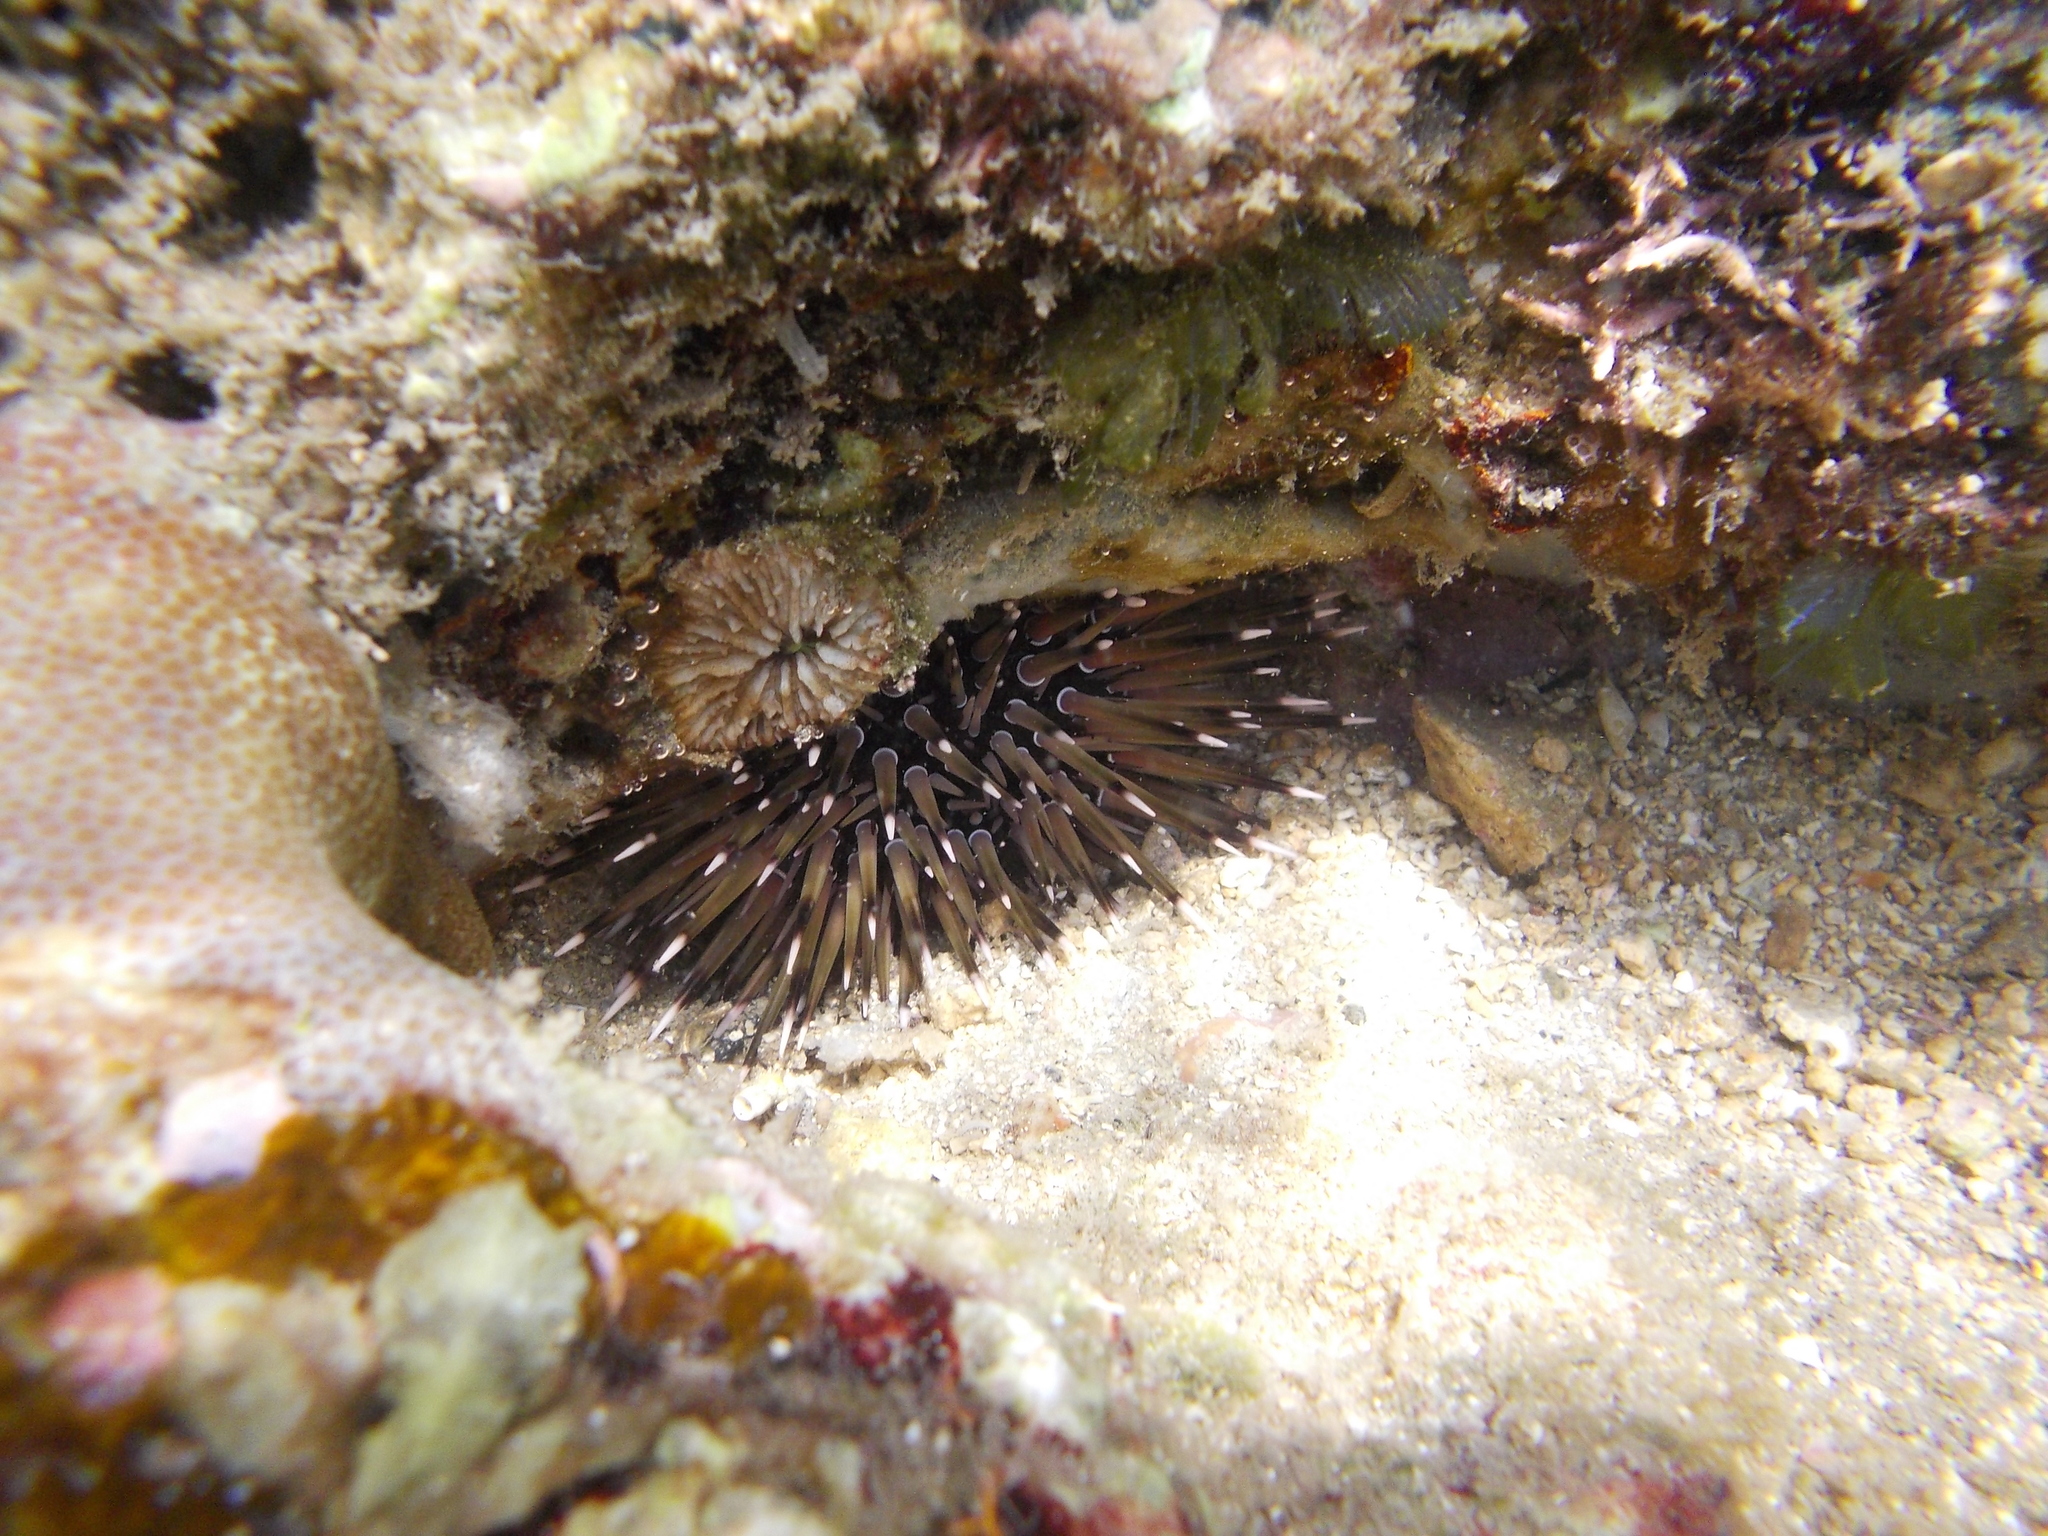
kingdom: Animalia
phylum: Echinodermata
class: Echinoidea
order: Camarodonta
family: Echinometridae
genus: Echinometra
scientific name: Echinometra mathaei
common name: Rock-boring urchin
